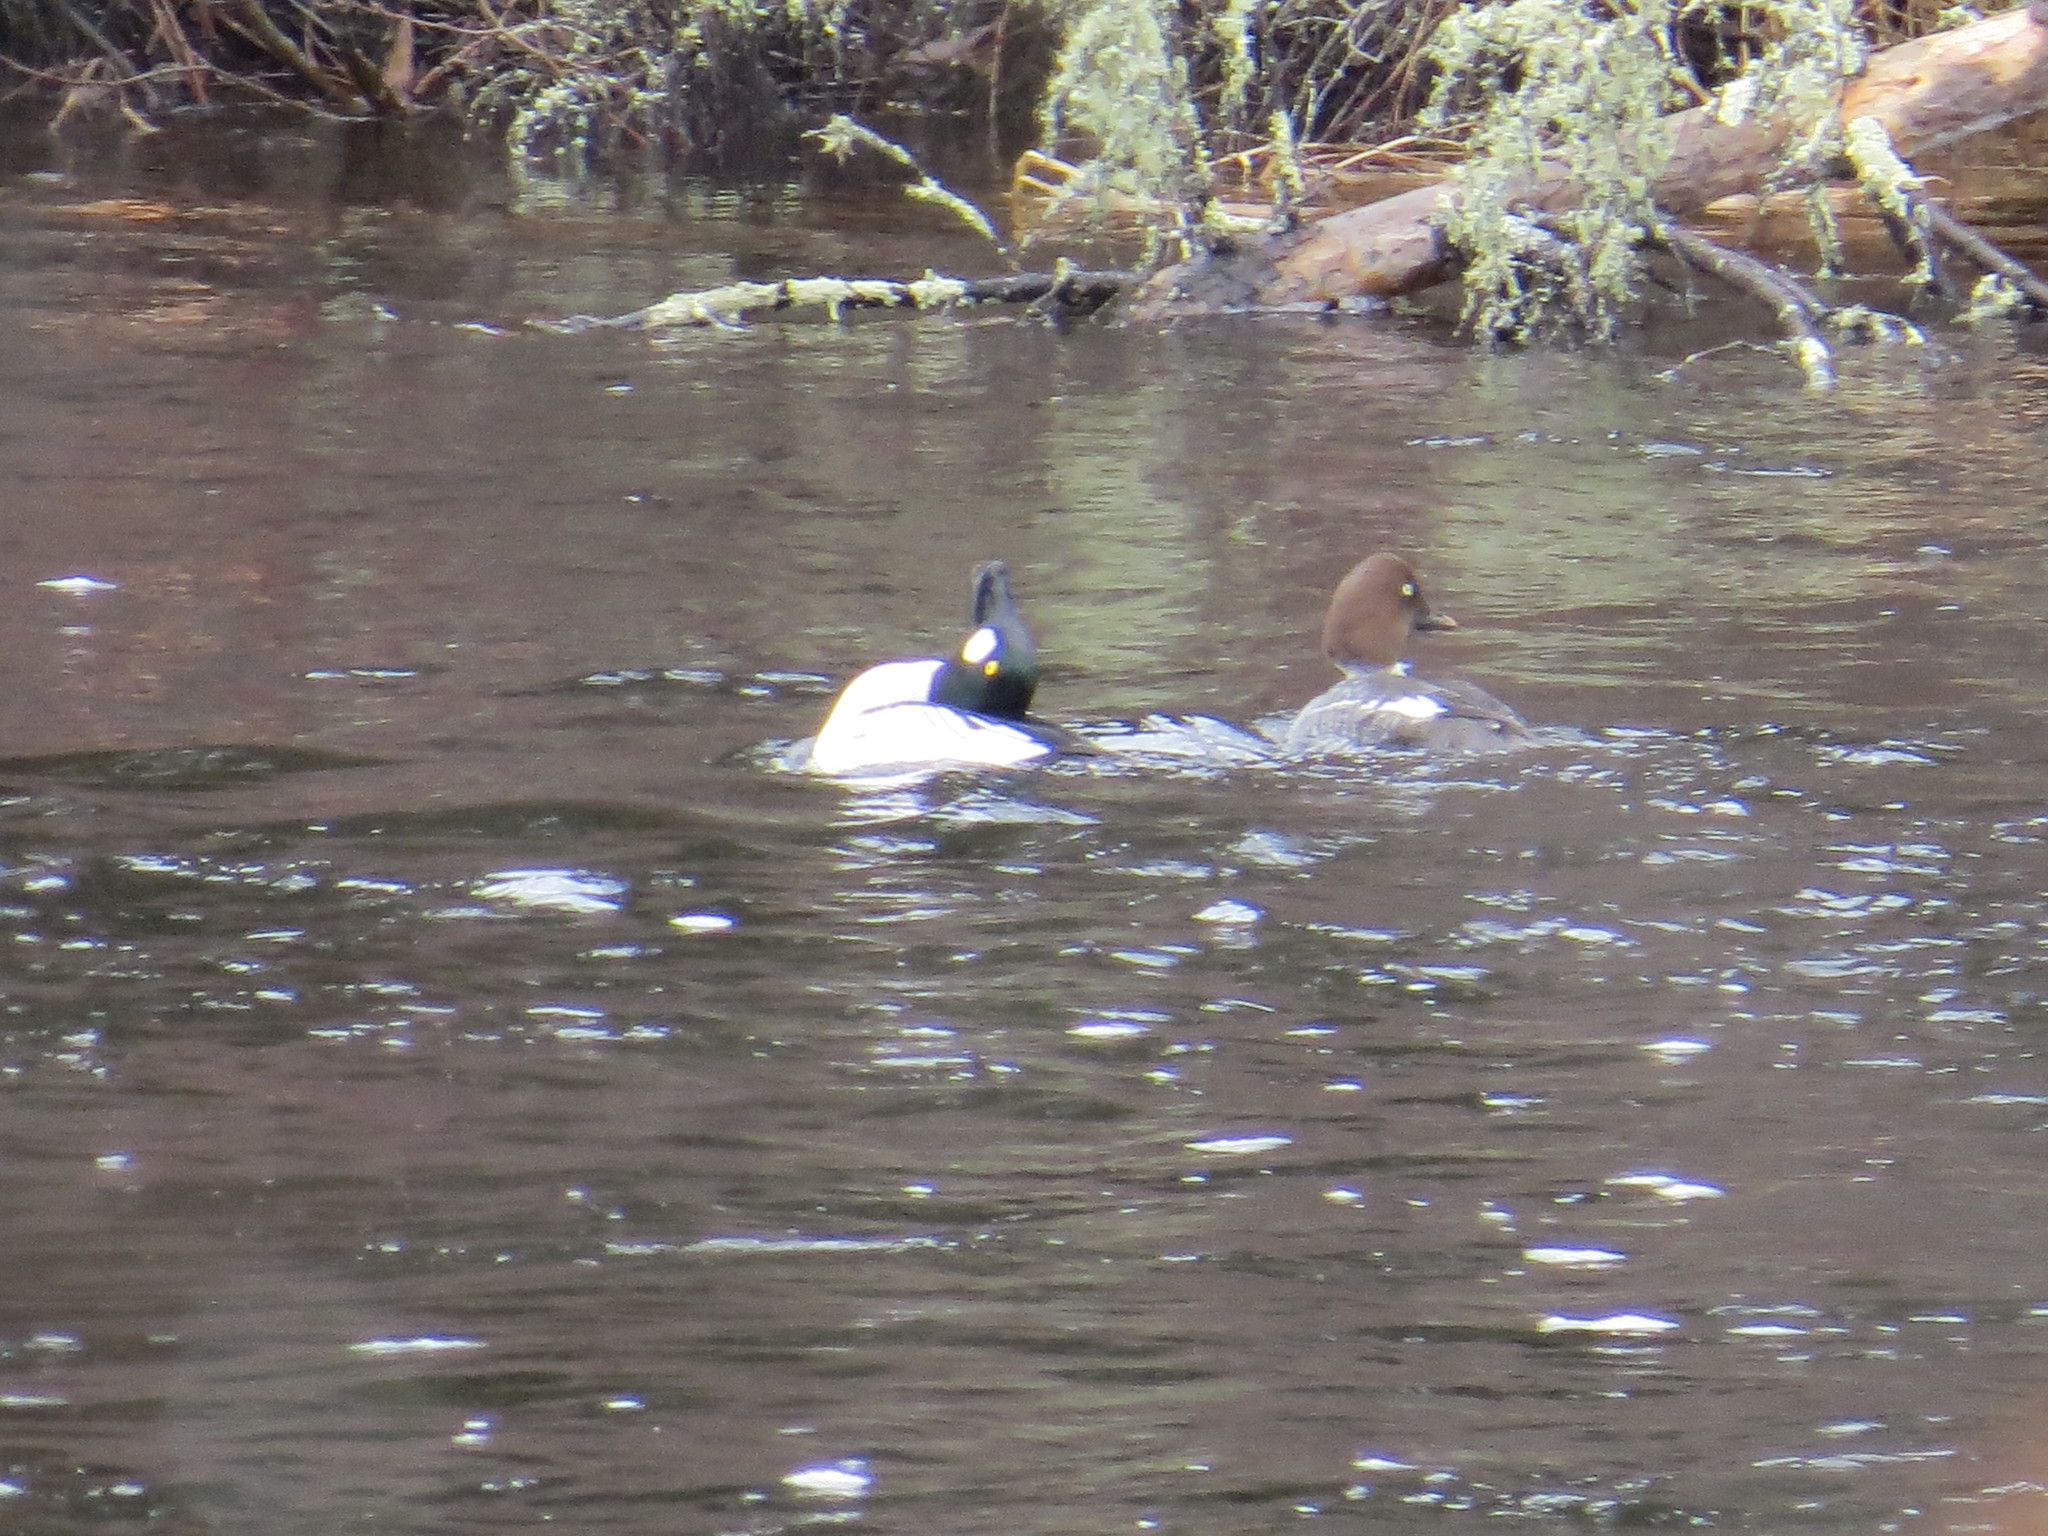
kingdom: Animalia
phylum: Chordata
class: Aves
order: Anseriformes
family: Anatidae
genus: Bucephala
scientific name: Bucephala clangula
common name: Common goldeneye
